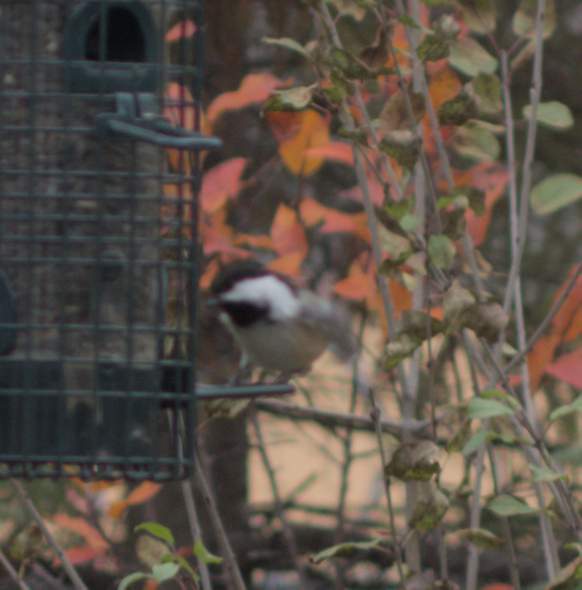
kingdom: Animalia
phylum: Chordata
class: Aves
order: Passeriformes
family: Paridae
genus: Poecile
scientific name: Poecile atricapillus
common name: Black-capped chickadee
